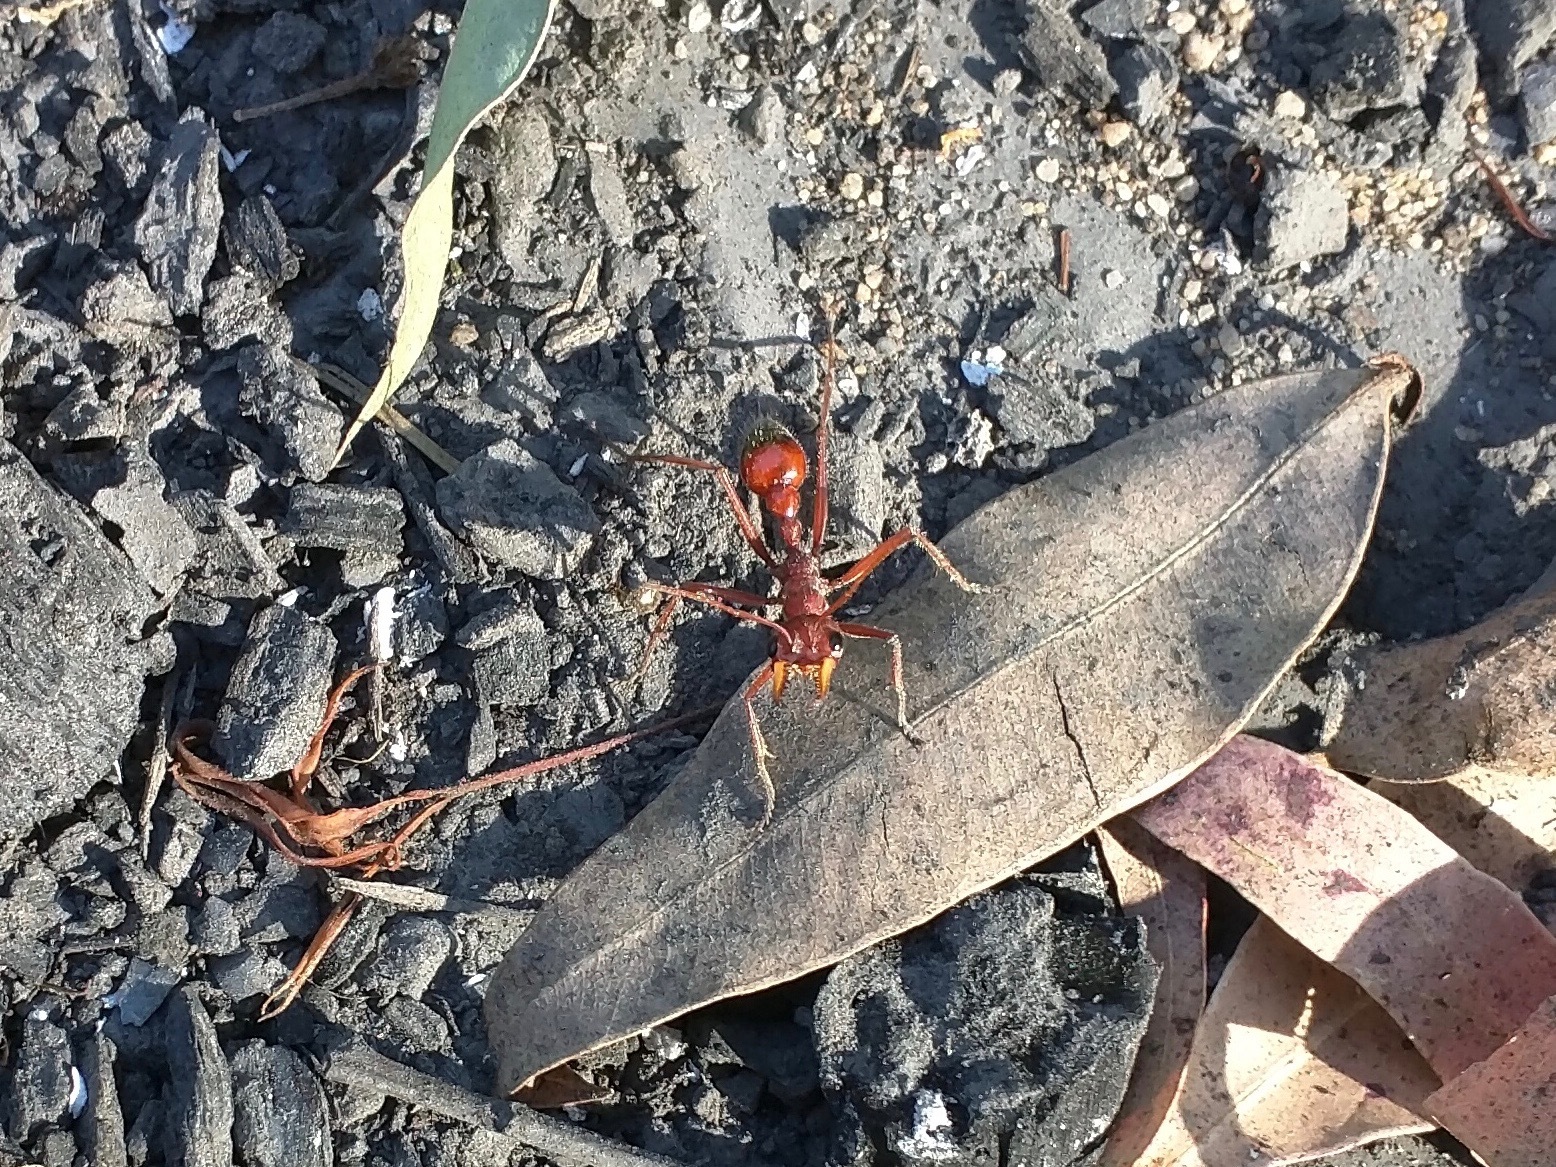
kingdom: Animalia
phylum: Arthropoda
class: Insecta
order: Hymenoptera
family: Formicidae
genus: Myrmecia
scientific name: Myrmecia gulosa
